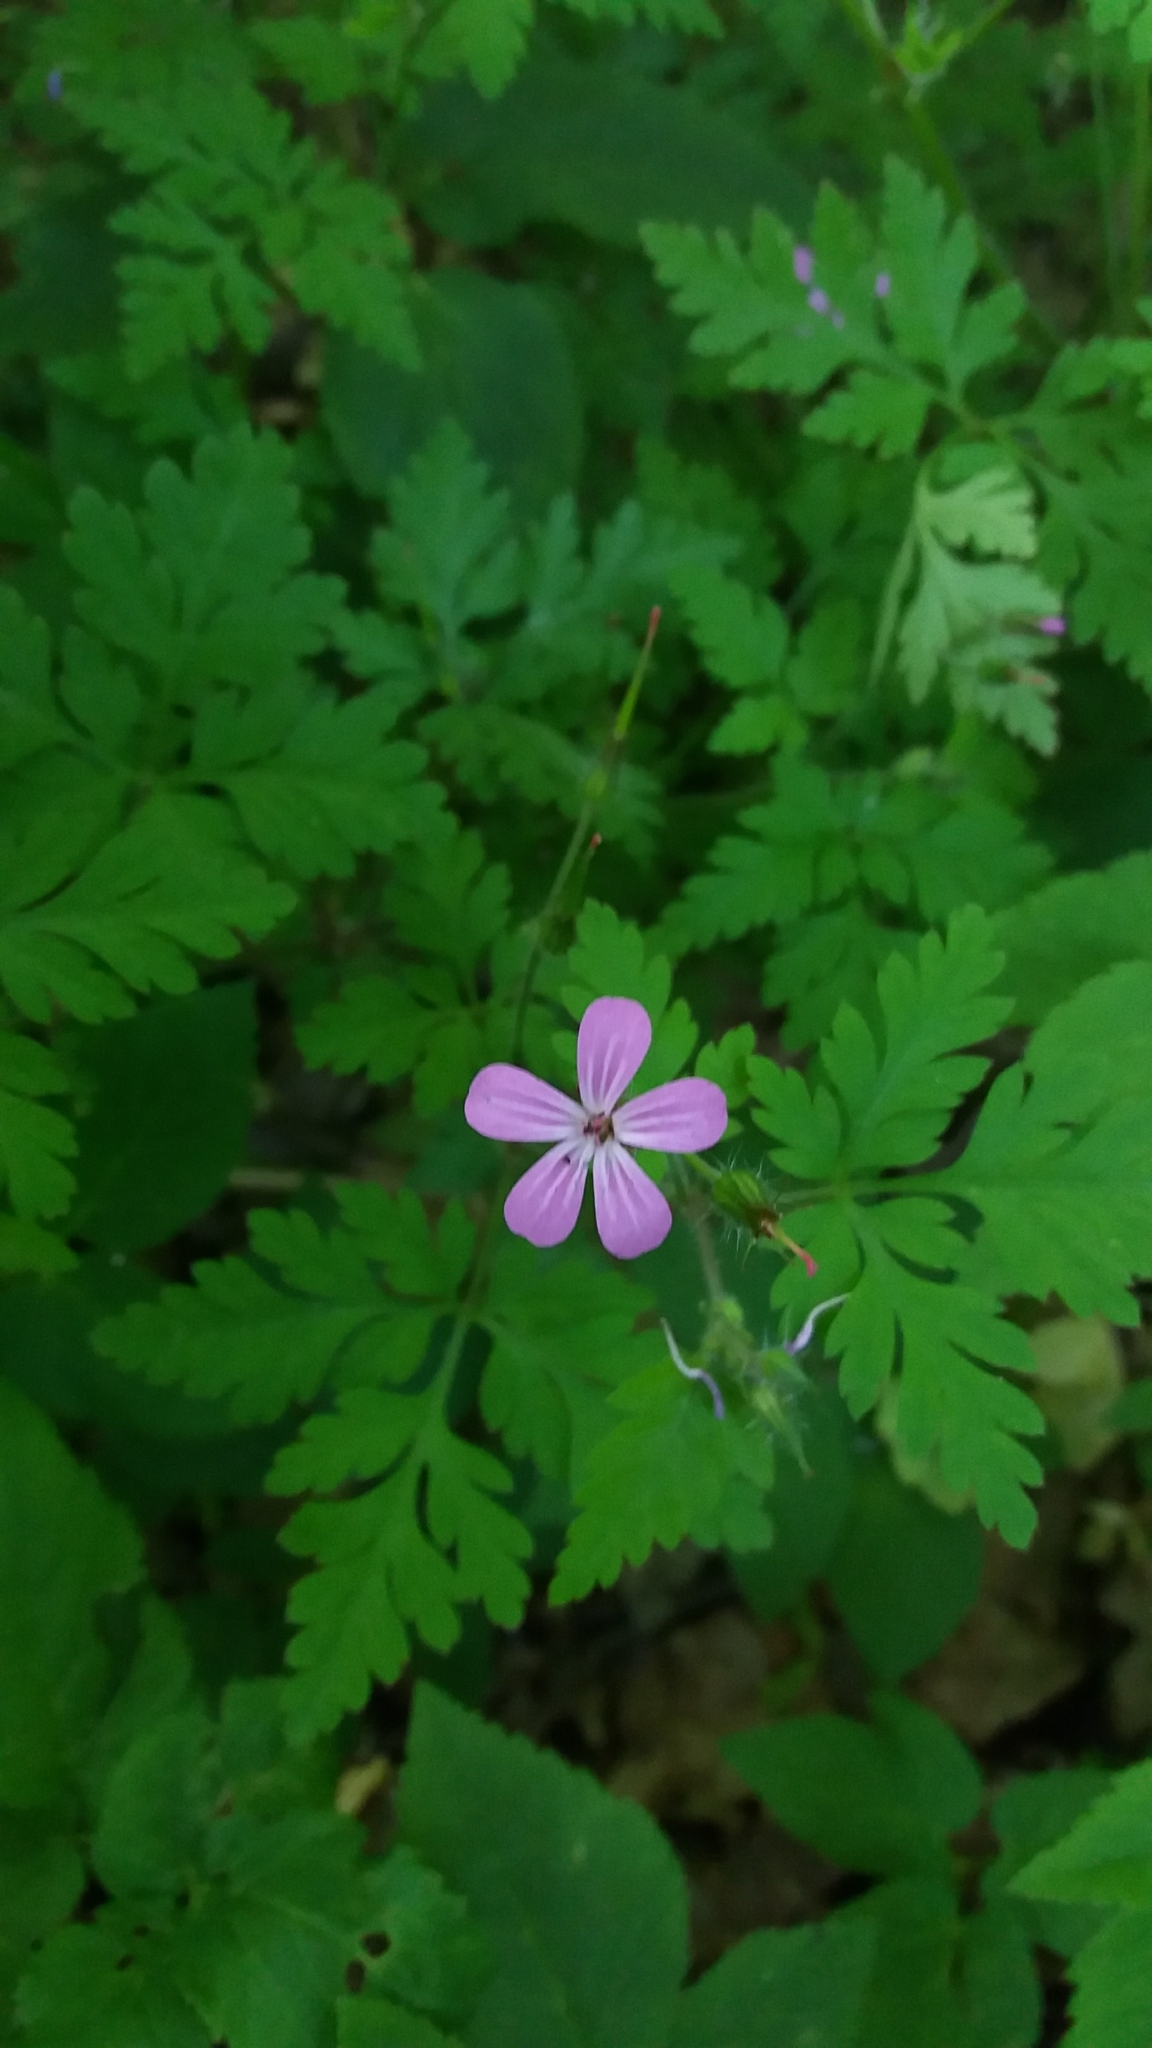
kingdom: Plantae
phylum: Tracheophyta
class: Magnoliopsida
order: Geraniales
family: Geraniaceae
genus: Geranium
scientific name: Geranium robertianum
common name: Herb-robert
